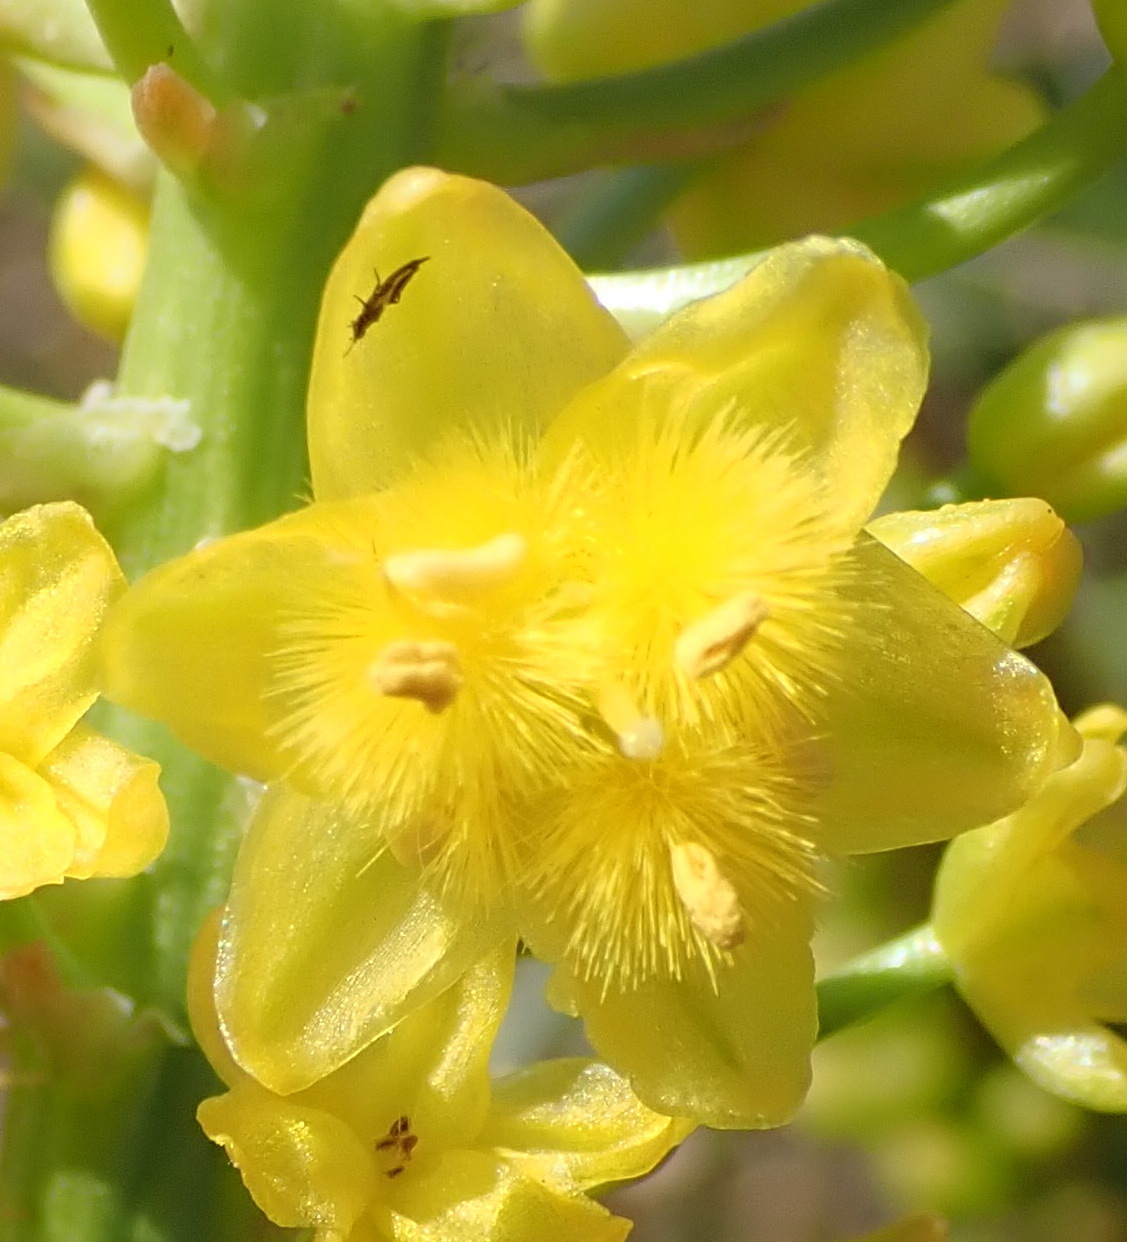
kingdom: Plantae
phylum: Tracheophyta
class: Liliopsida
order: Asparagales
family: Asphodelaceae
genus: Bulbine
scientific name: Bulbine abyssinica
